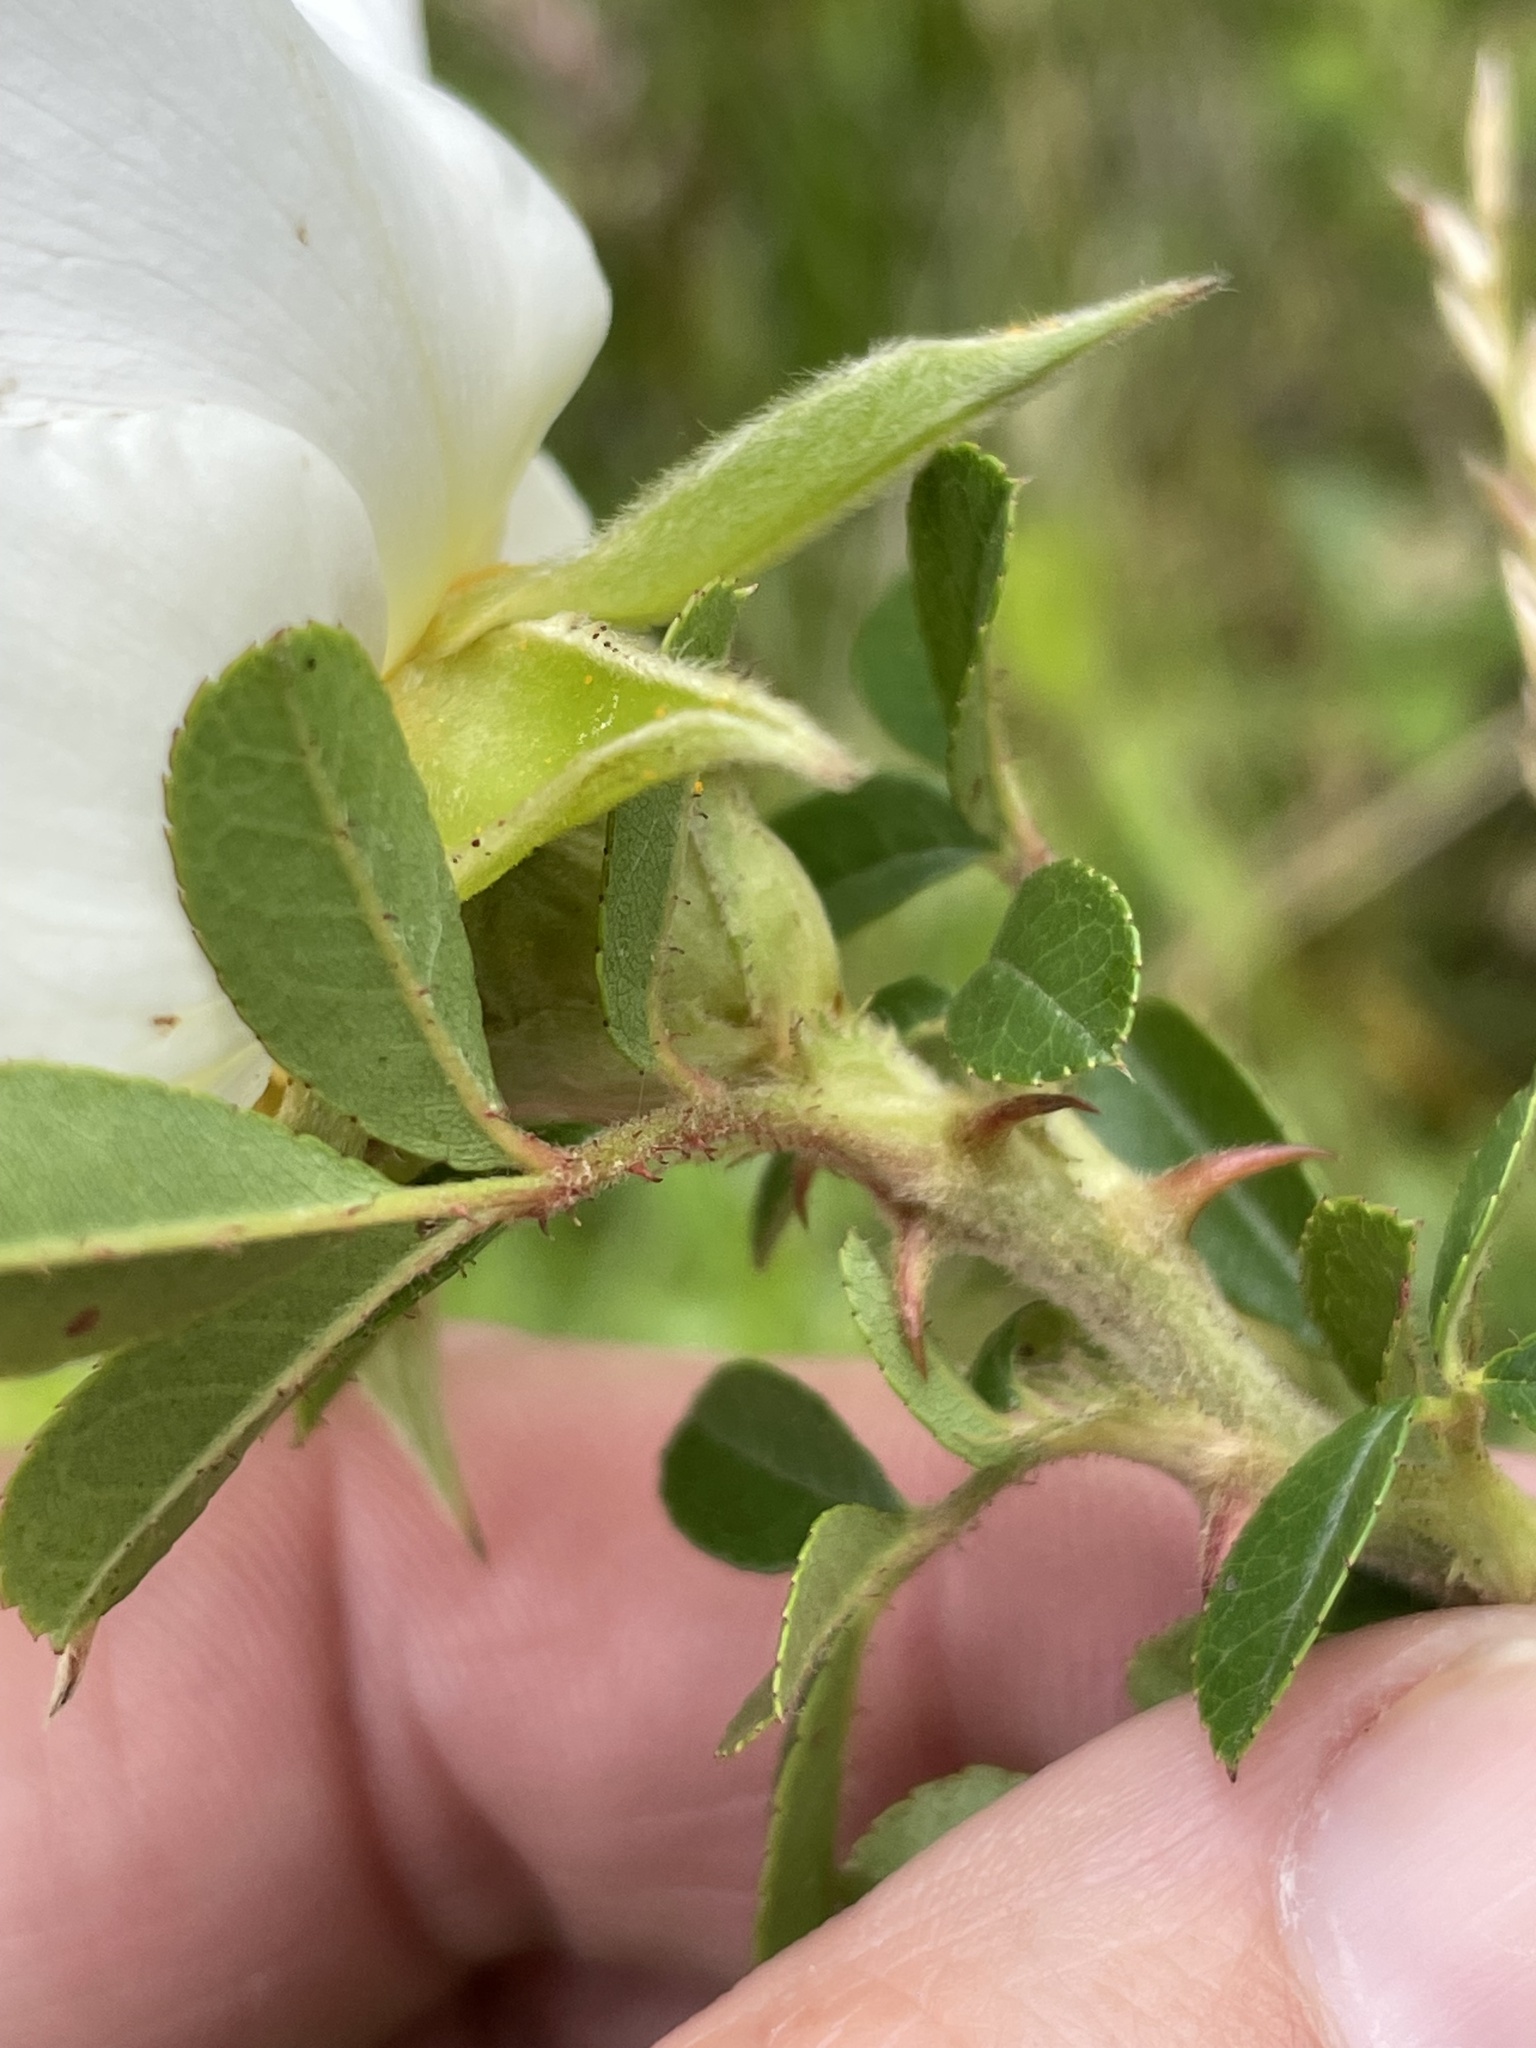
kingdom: Plantae
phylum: Tracheophyta
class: Magnoliopsida
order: Rosales
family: Rosaceae
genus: Rosa
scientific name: Rosa bracteata
